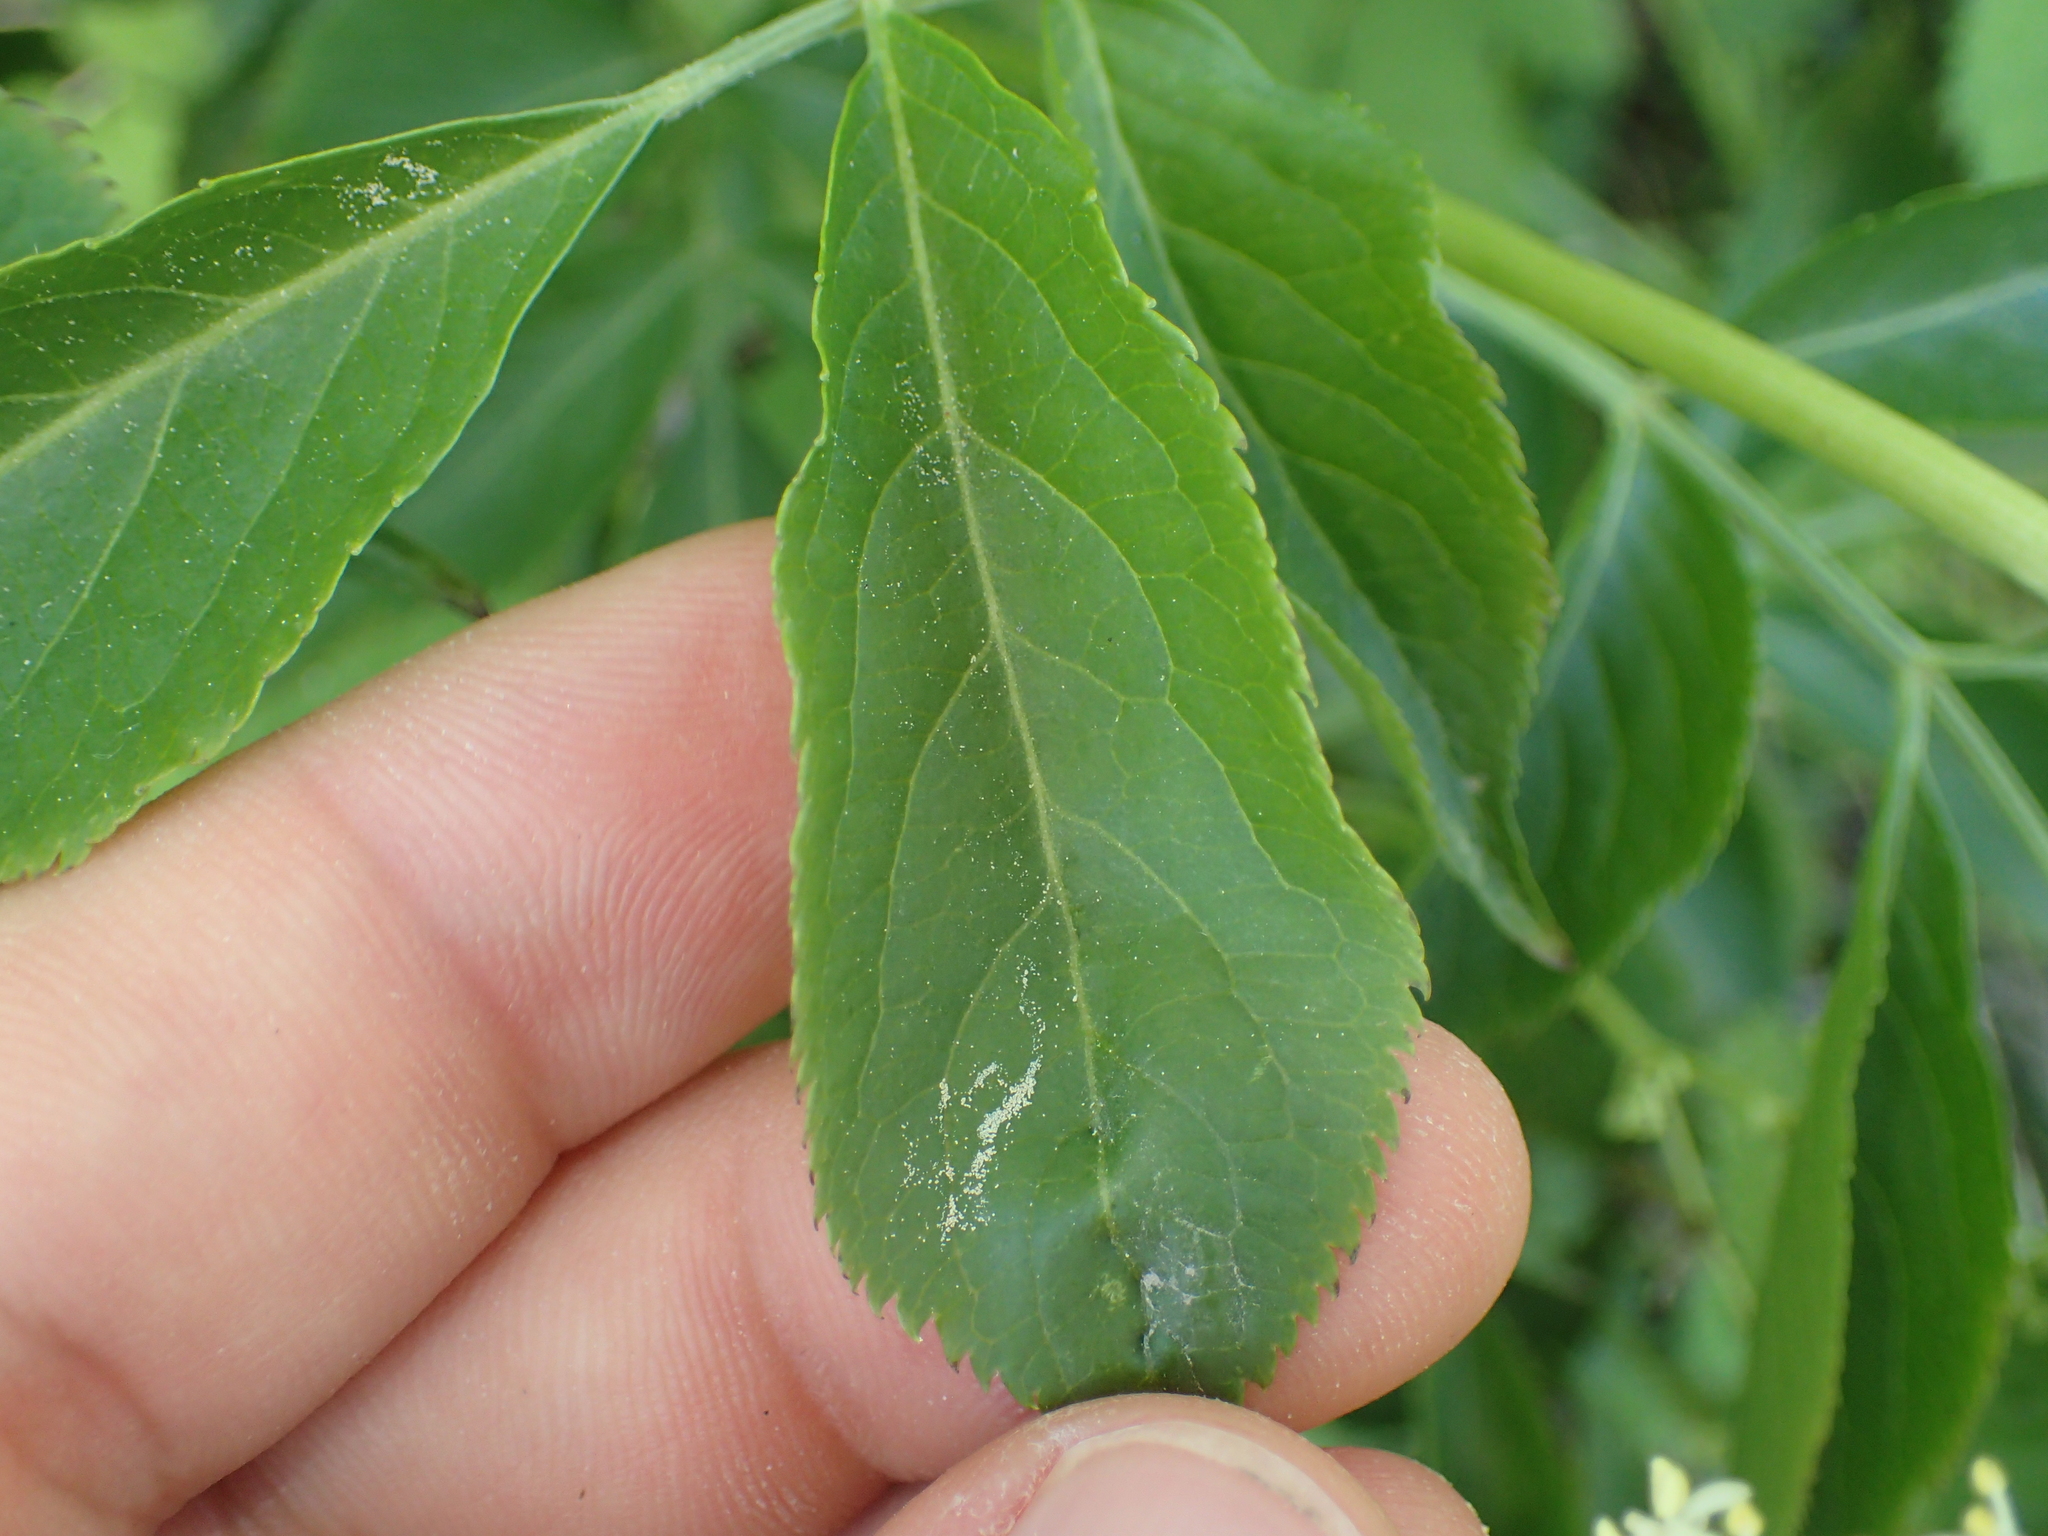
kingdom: Plantae
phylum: Tracheophyta
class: Magnoliopsida
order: Dipsacales
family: Viburnaceae
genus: Sambucus
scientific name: Sambucus nigra
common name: Elder
